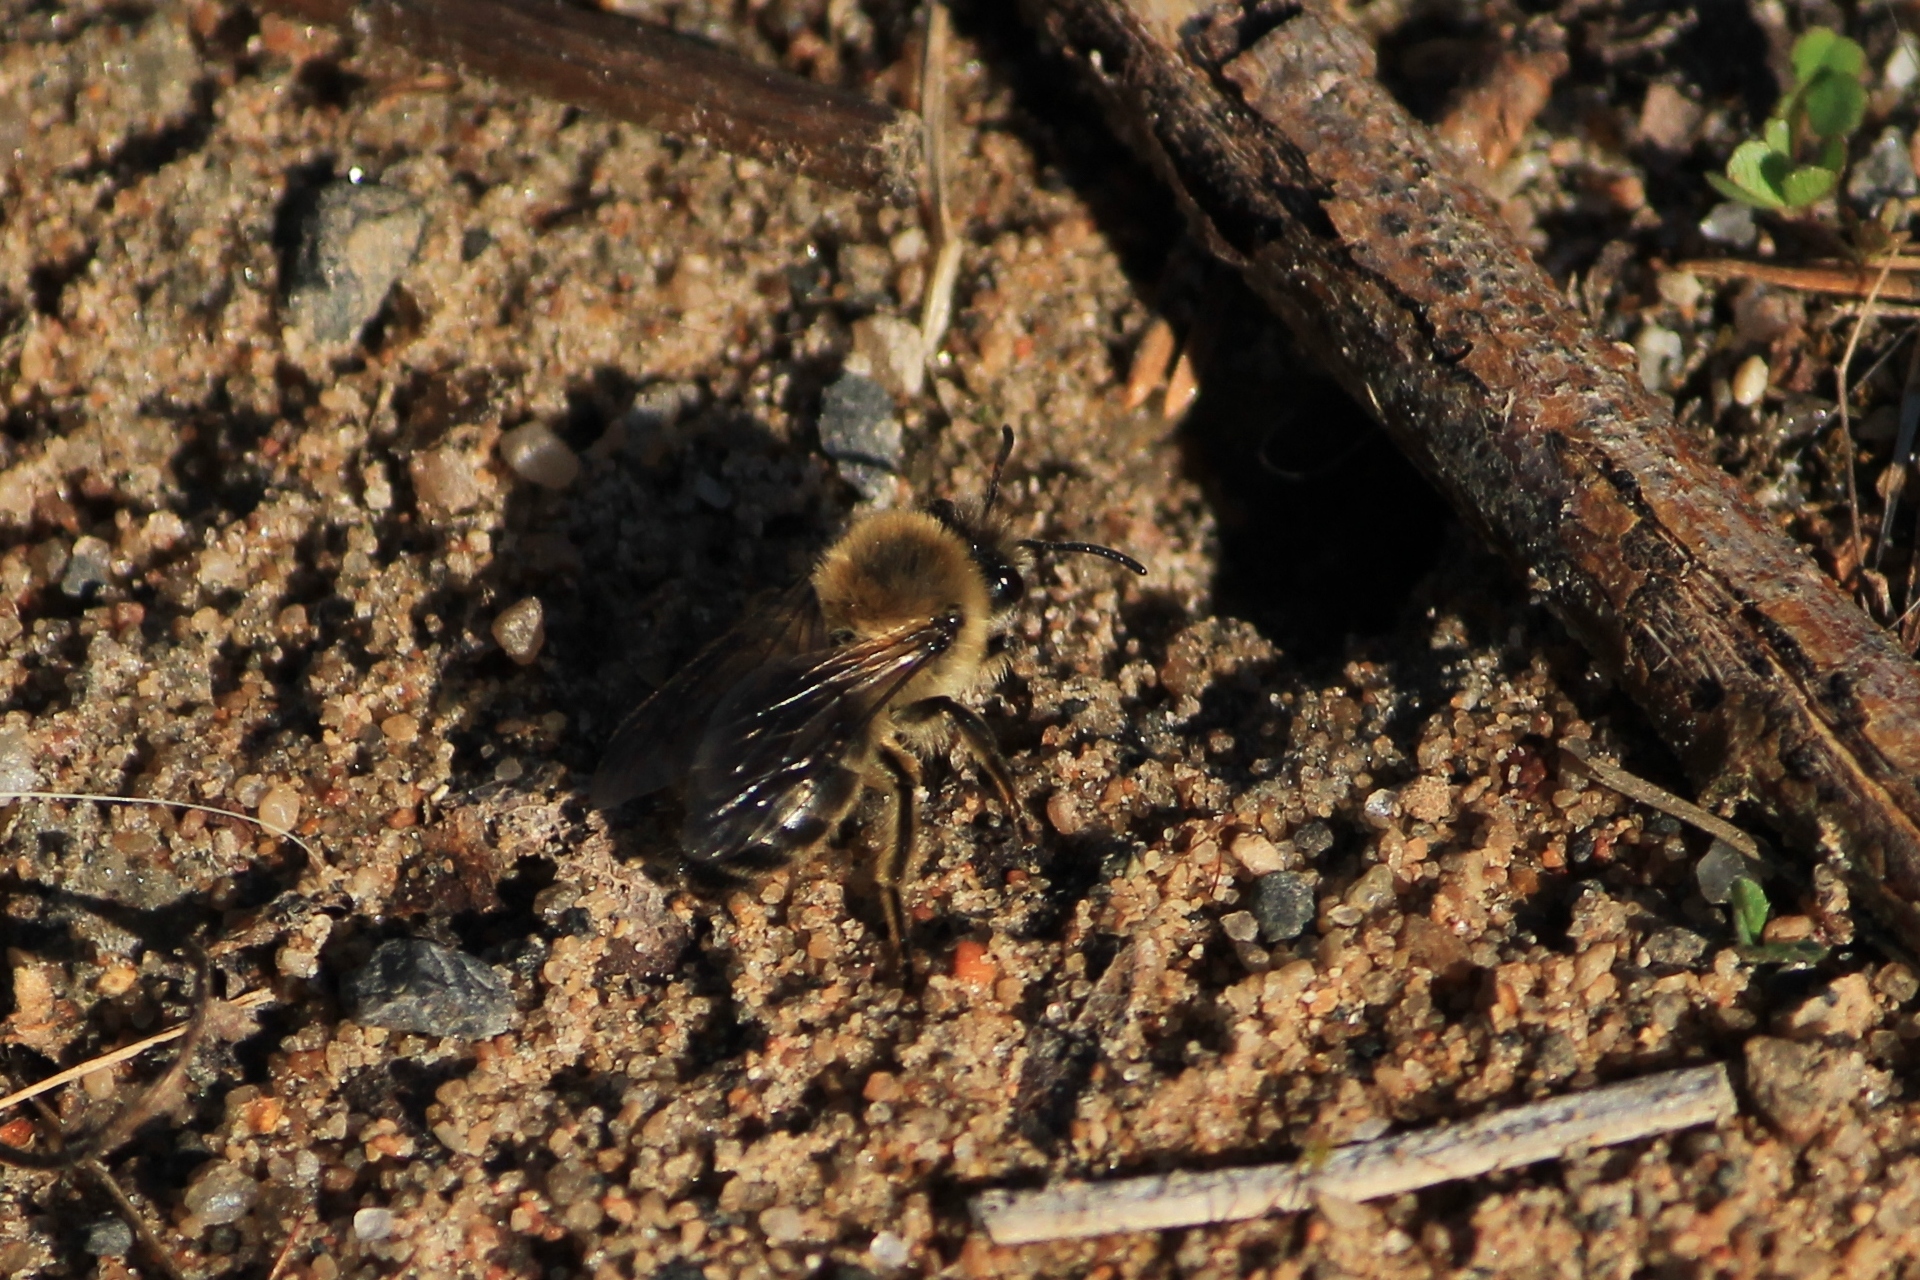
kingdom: Animalia
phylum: Arthropoda
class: Insecta
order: Hymenoptera
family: Colletidae
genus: Colletes
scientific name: Colletes cunicularius
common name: Early colletes
